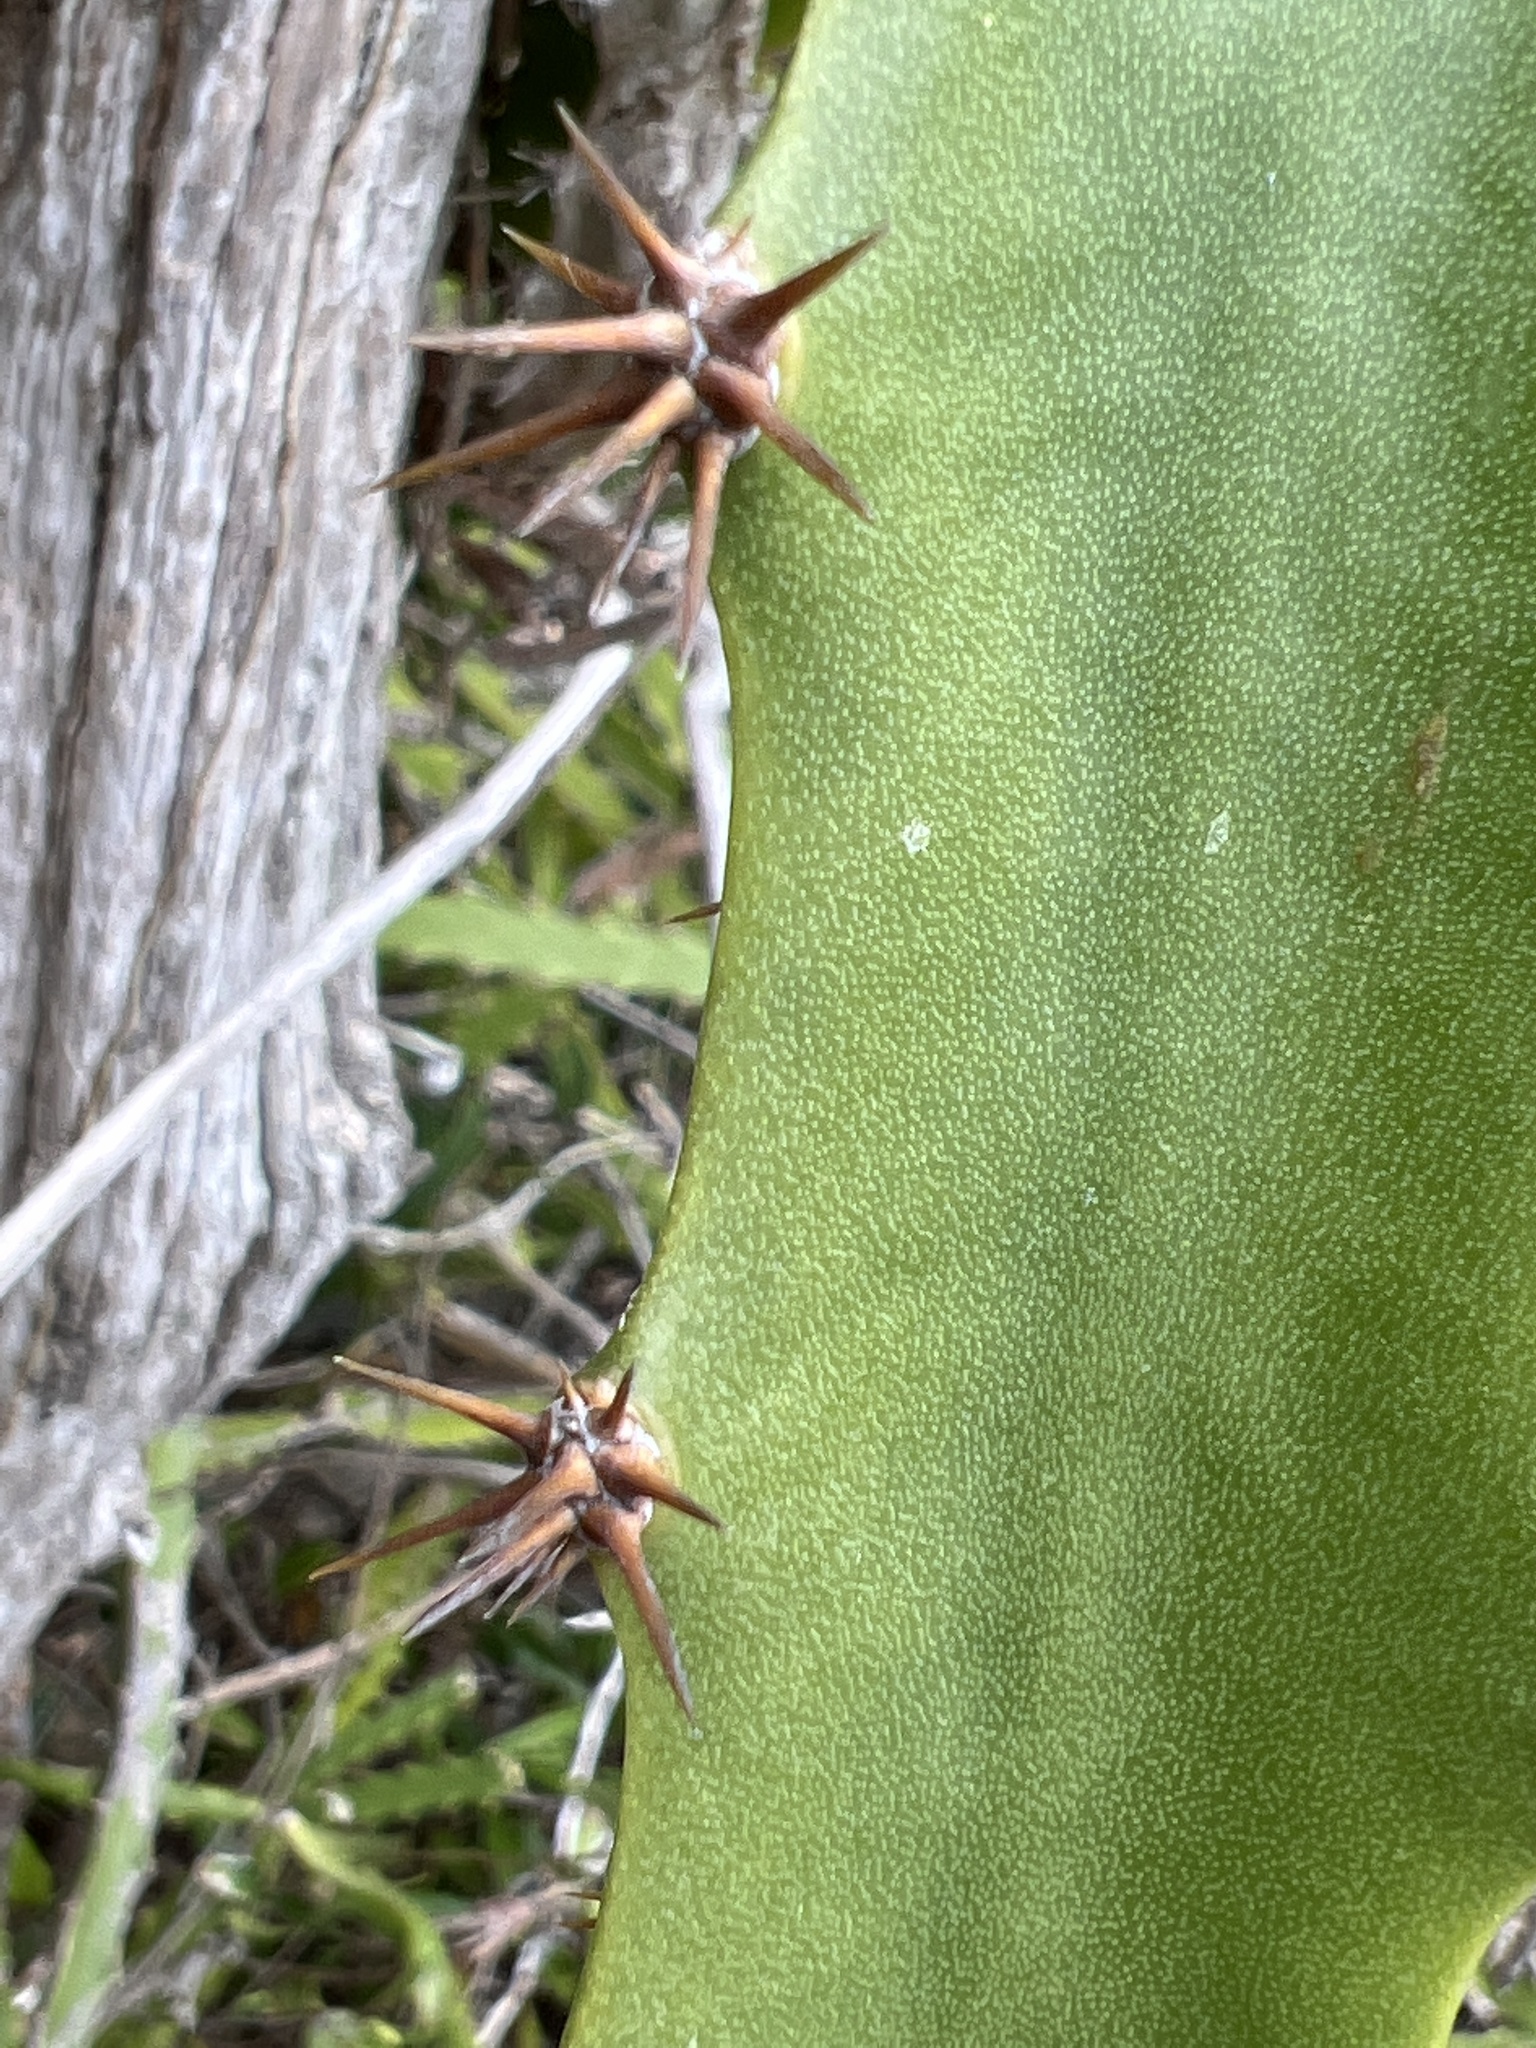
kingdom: Plantae
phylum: Tracheophyta
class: Magnoliopsida
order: Caryophyllales
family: Cactaceae
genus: Selenicereus
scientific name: Selenicereus triangularis
